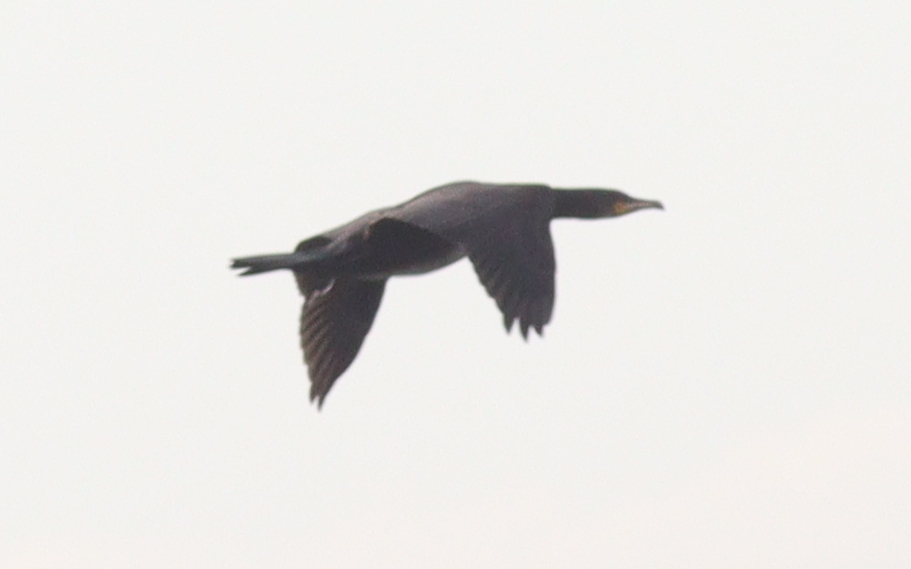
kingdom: Animalia
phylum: Chordata
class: Aves
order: Suliformes
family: Phalacrocoracidae
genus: Phalacrocorax
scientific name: Phalacrocorax carbo
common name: Great cormorant
